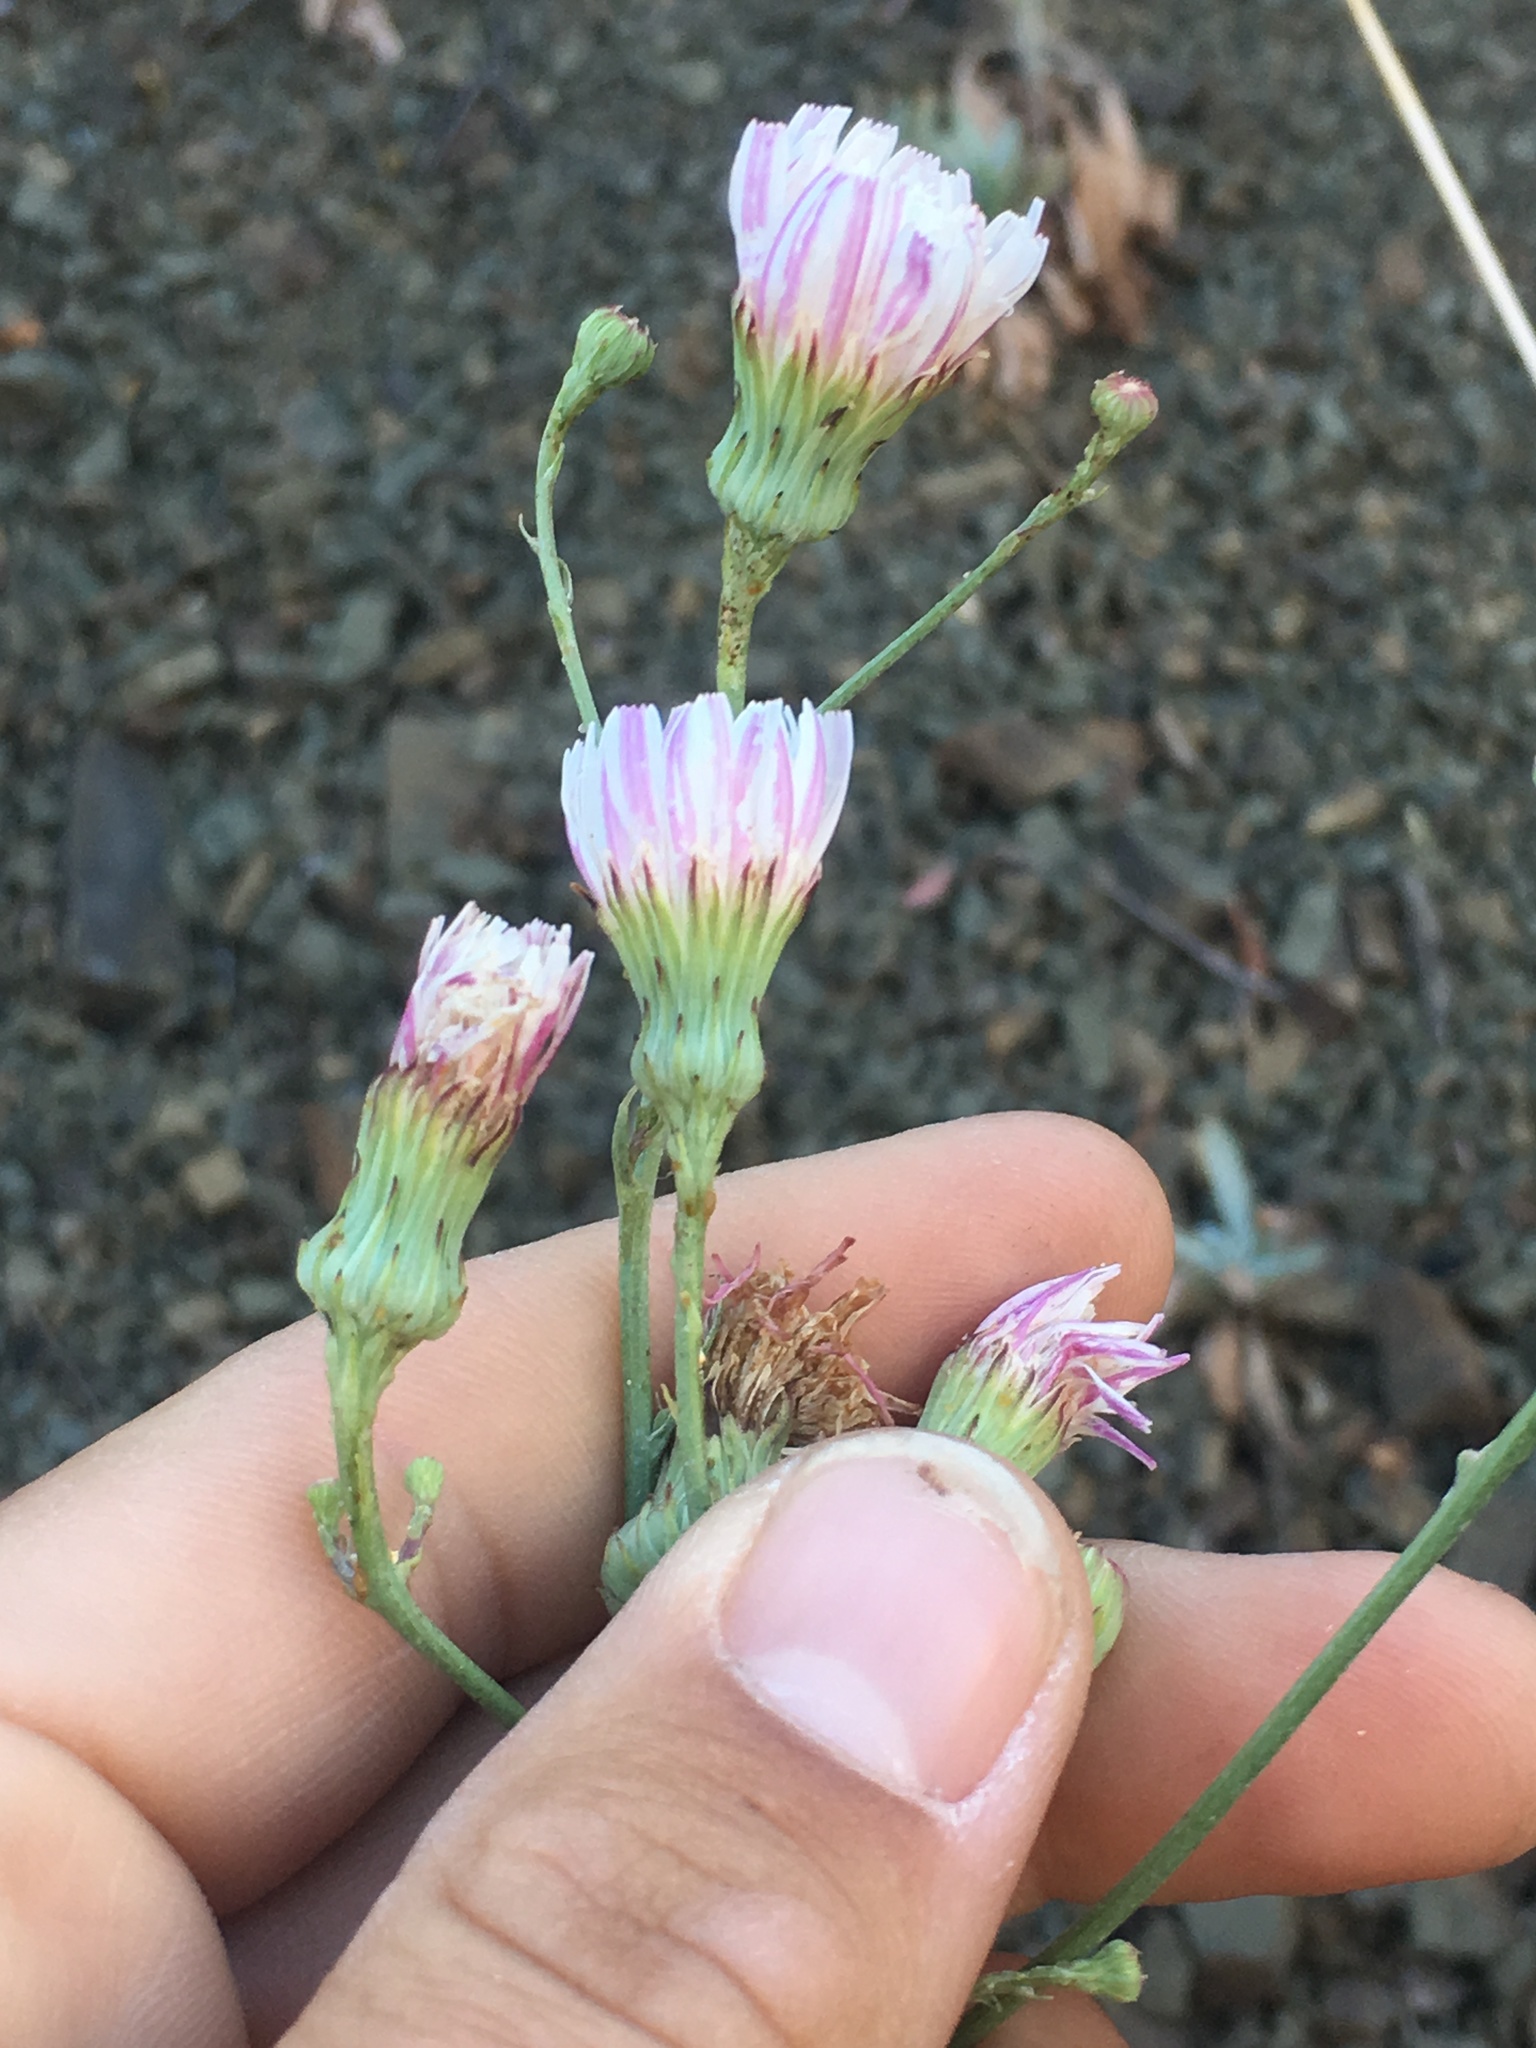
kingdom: Plantae
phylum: Tracheophyta
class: Magnoliopsida
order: Asterales
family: Asteraceae
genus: Malacothrix
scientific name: Malacothrix saxatilis
